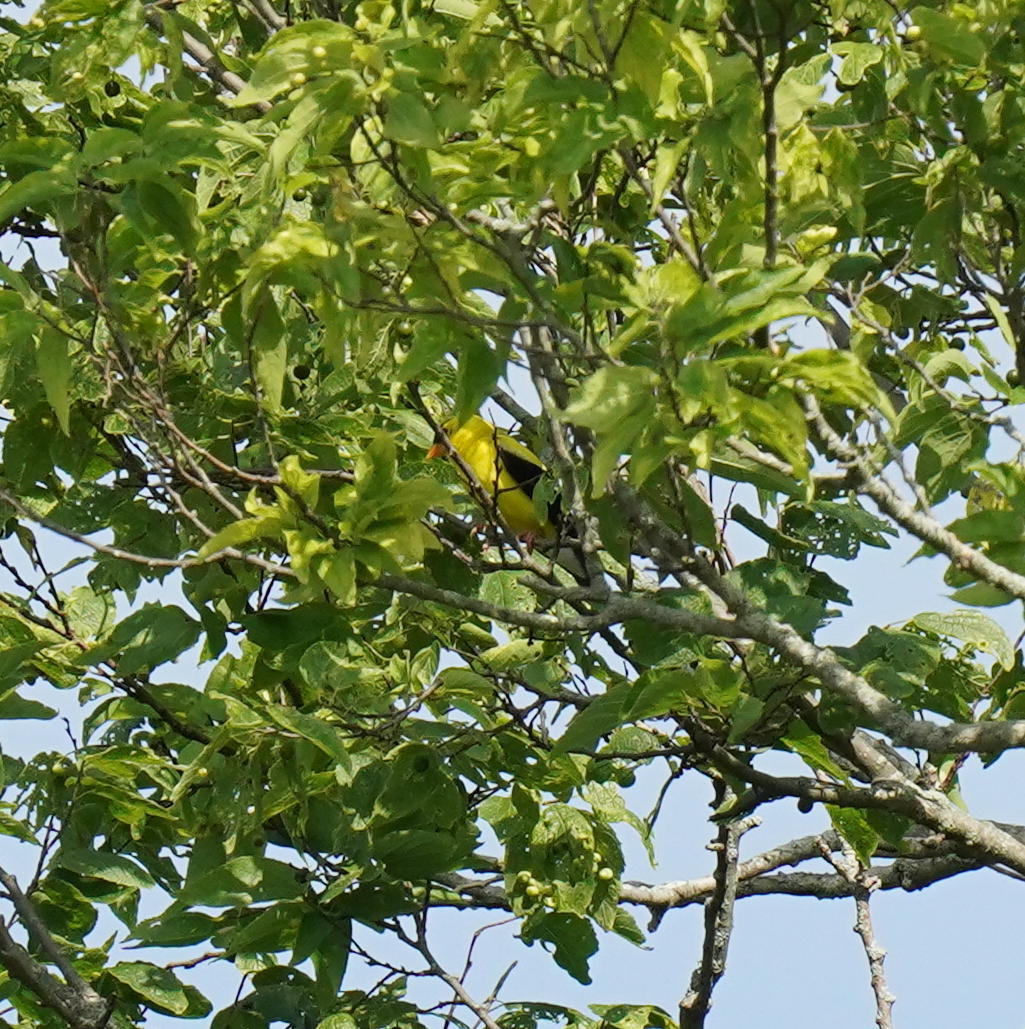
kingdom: Animalia
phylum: Chordata
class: Aves
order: Passeriformes
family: Fringillidae
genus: Spinus
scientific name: Spinus tristis
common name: American goldfinch
